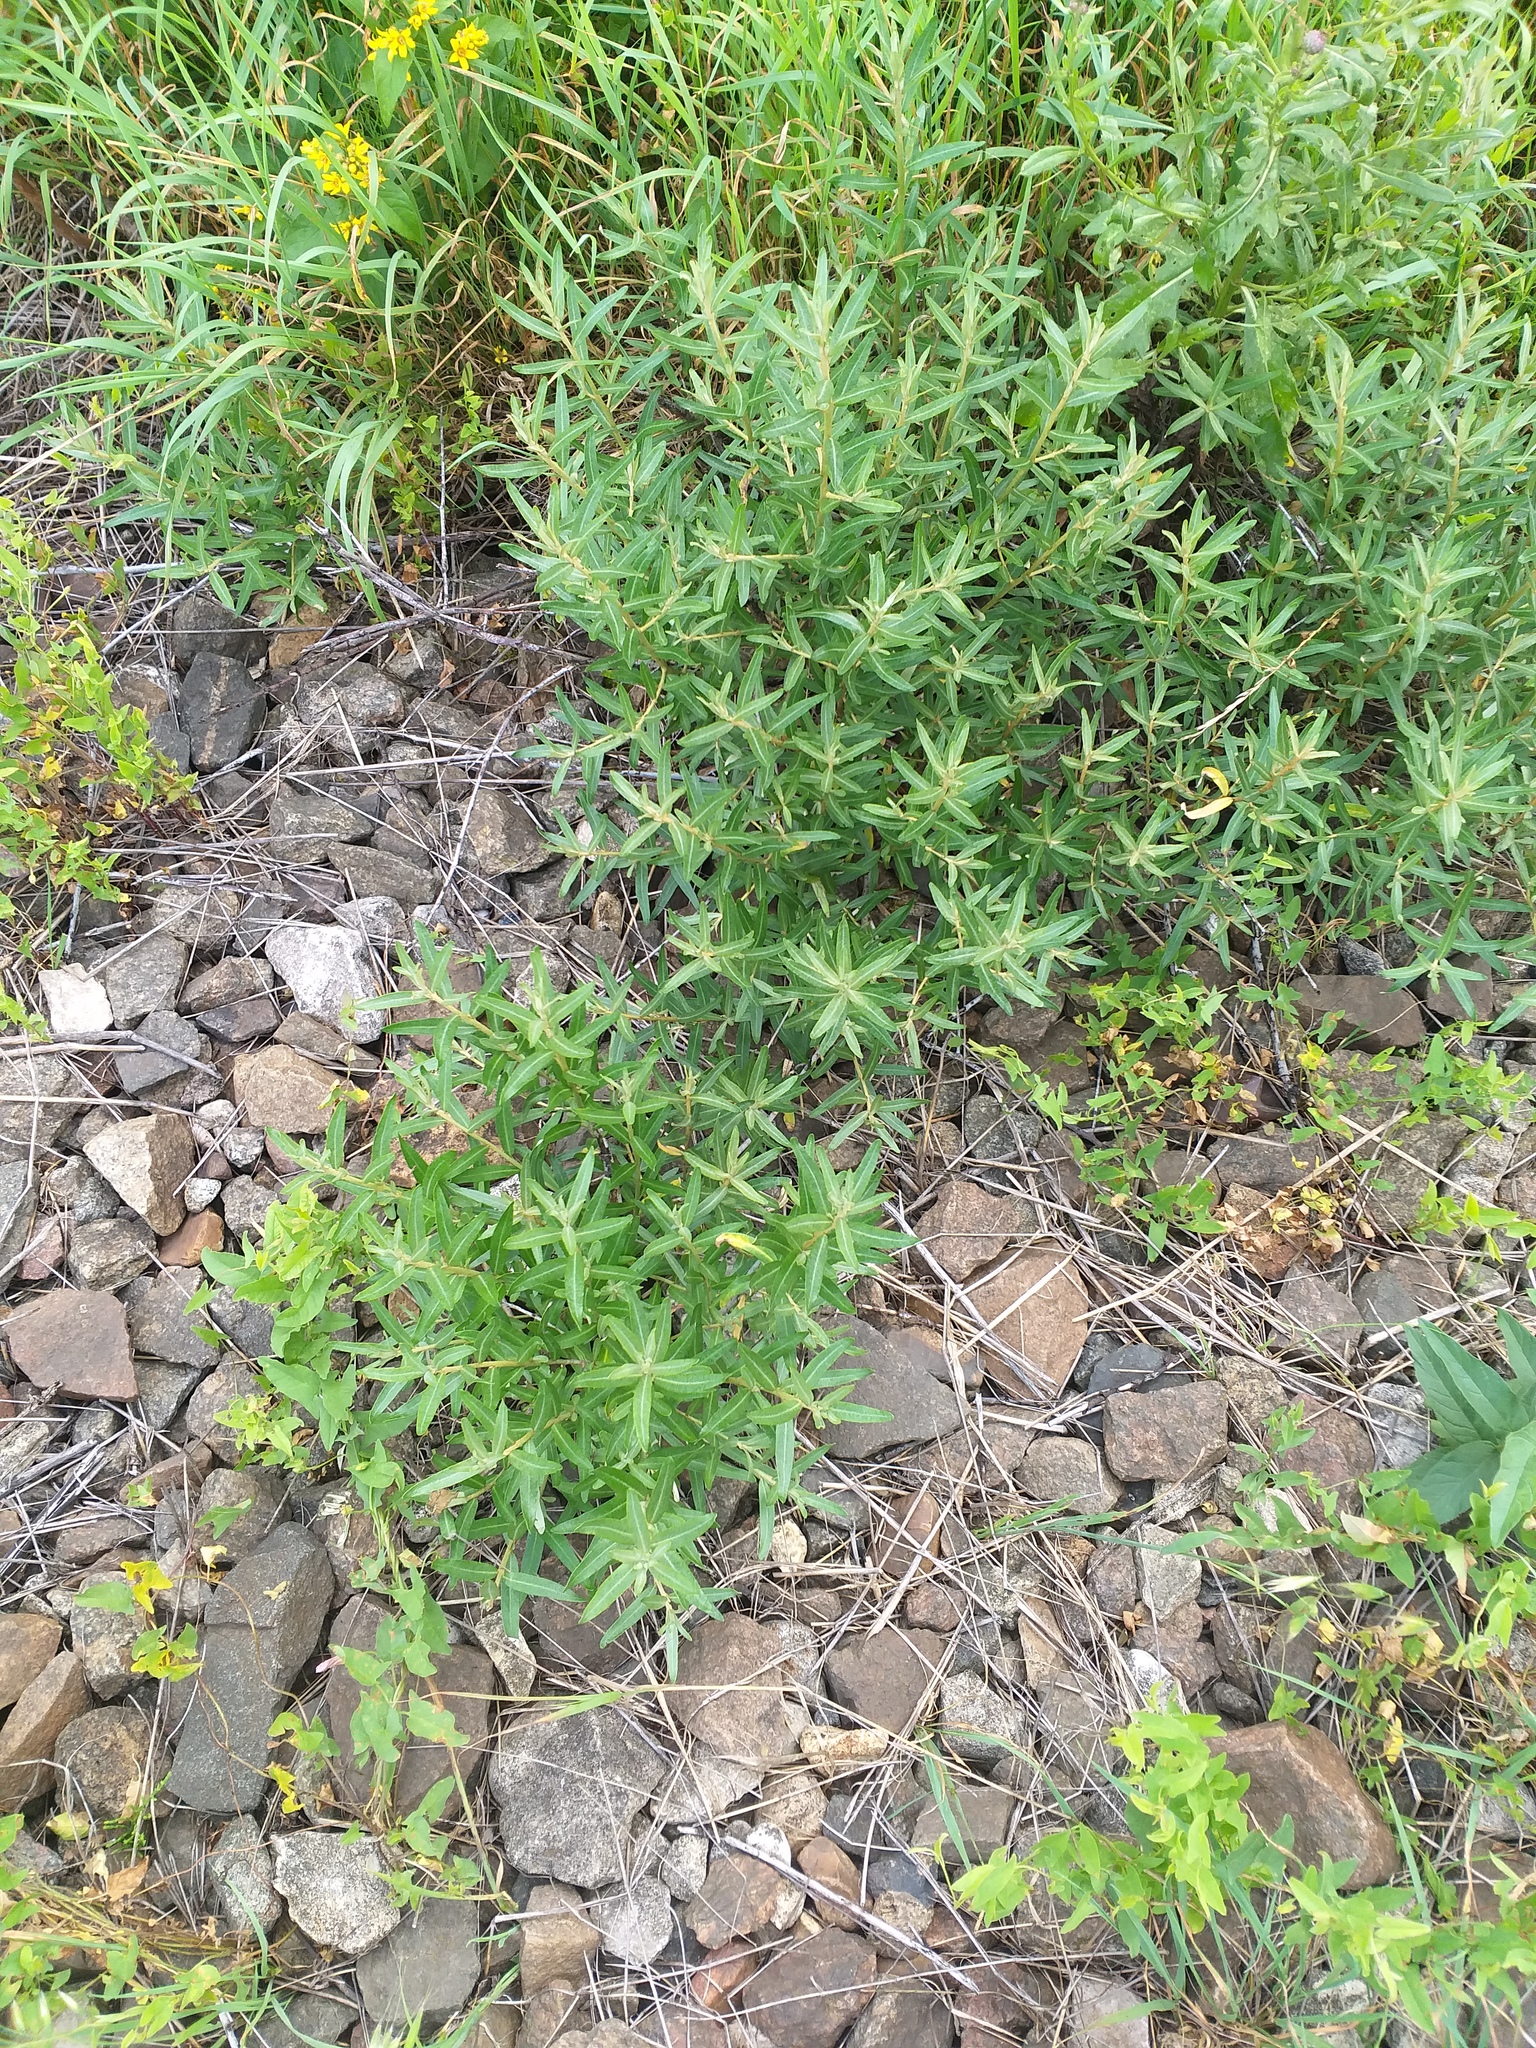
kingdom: Plantae
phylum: Tracheophyta
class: Magnoliopsida
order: Rosales
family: Elaeagnaceae
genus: Hippophae
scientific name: Hippophae rhamnoides
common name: Sea-buckthorn
